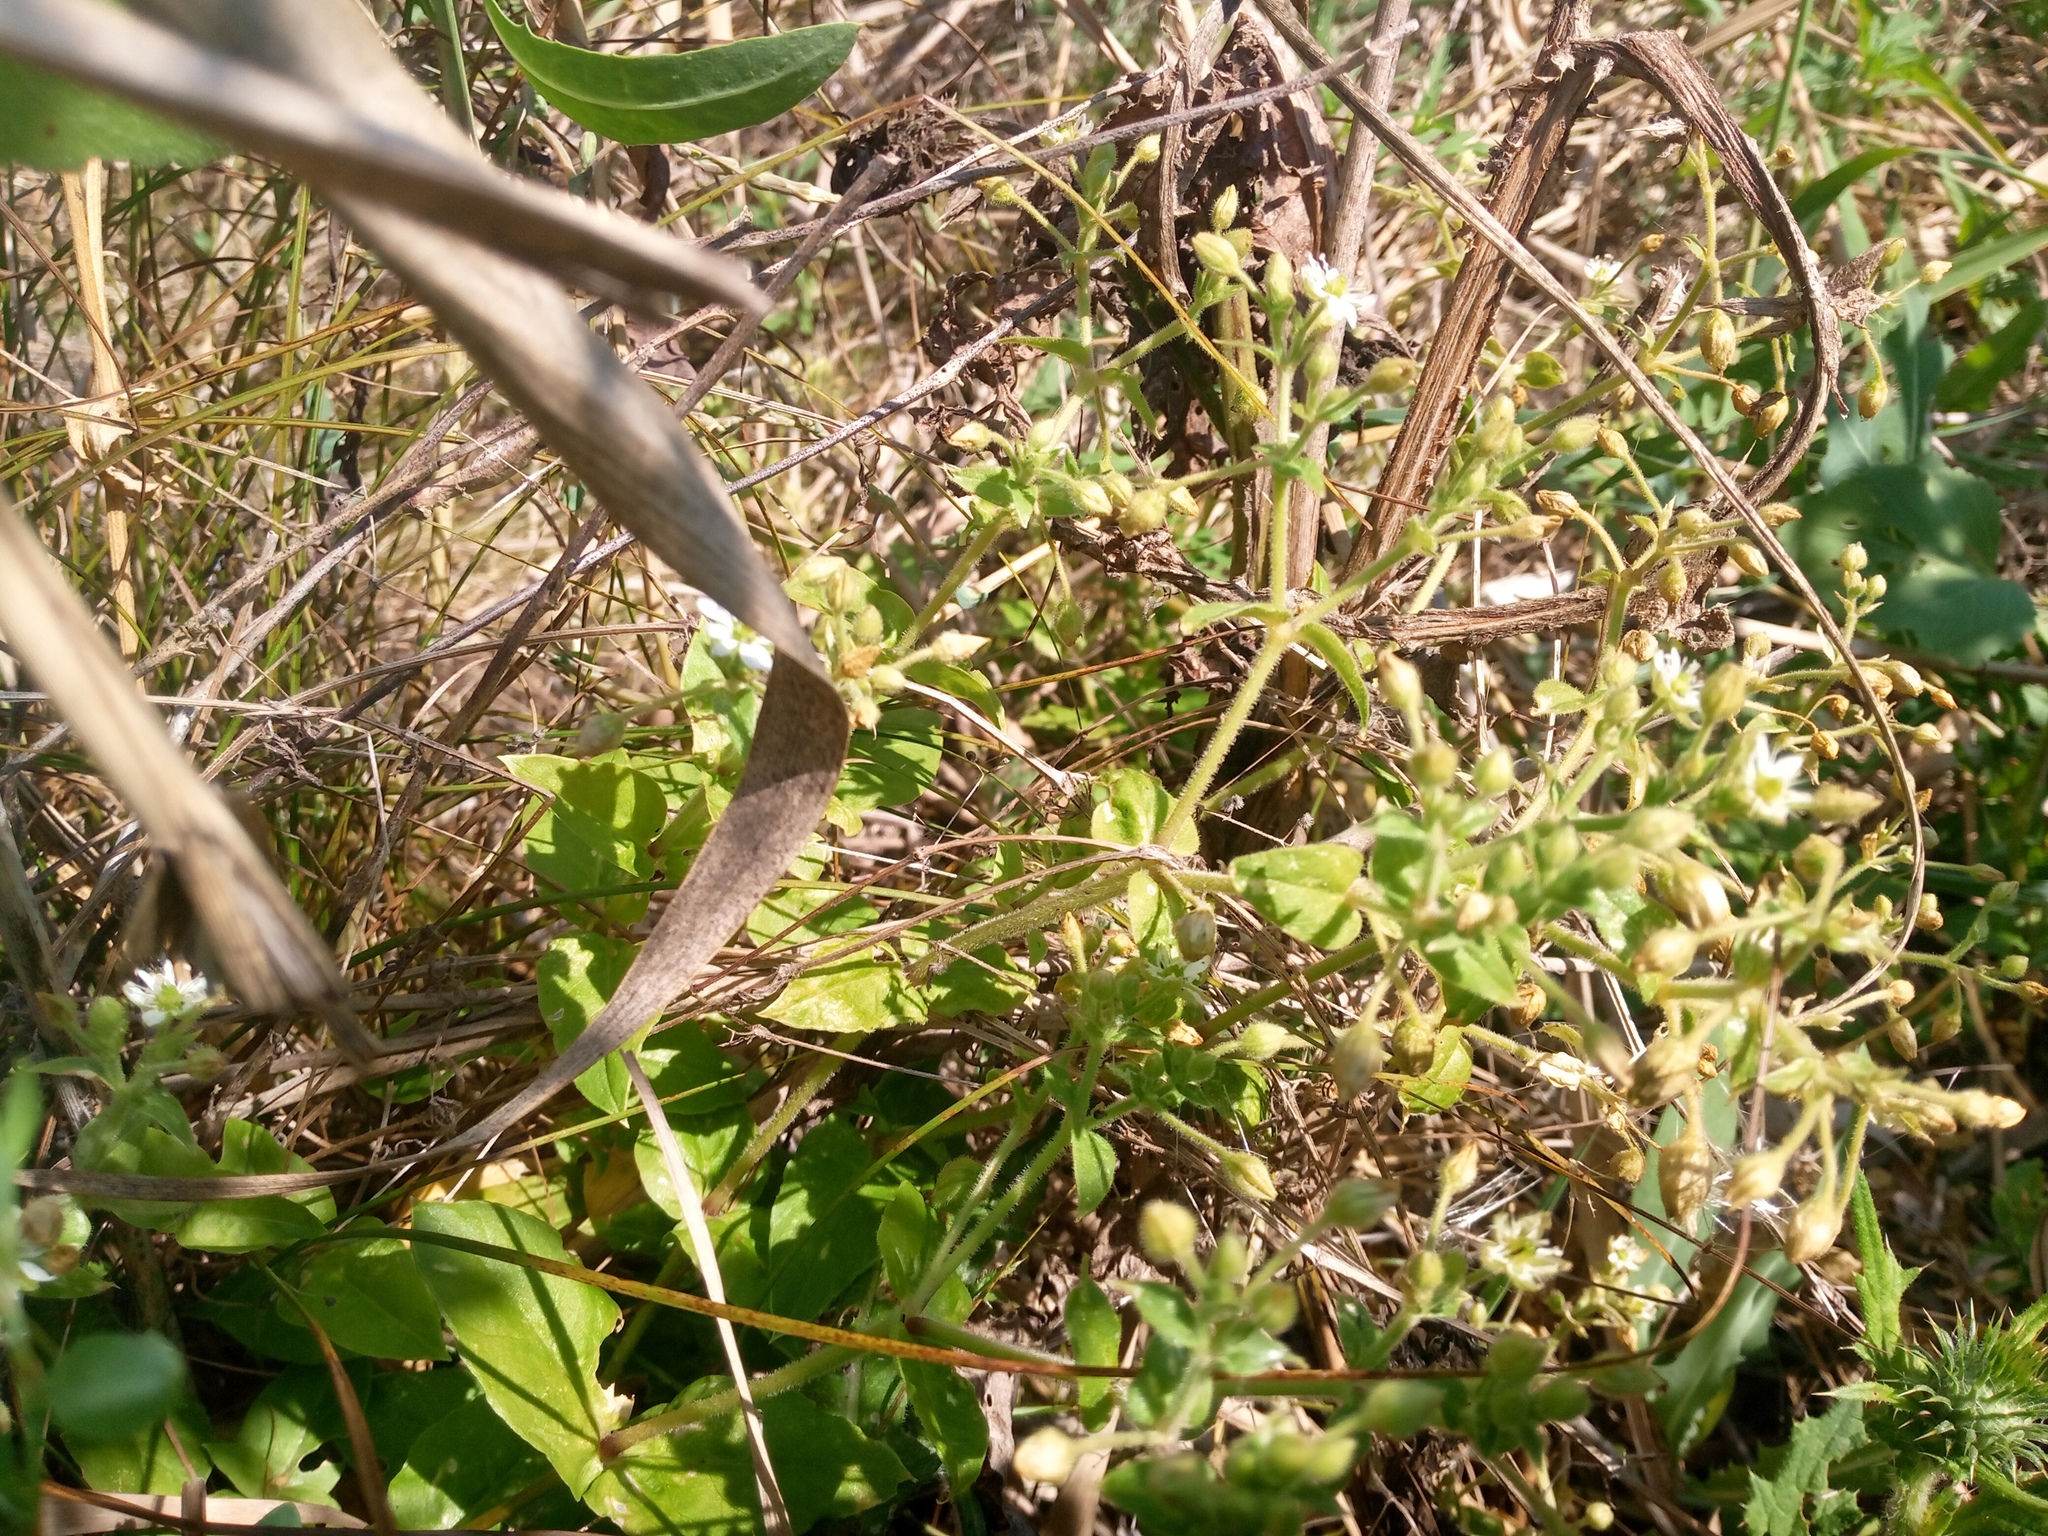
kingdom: Plantae
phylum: Tracheophyta
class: Magnoliopsida
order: Caryophyllales
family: Caryophyllaceae
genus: Stellaria
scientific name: Stellaria aquatica
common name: Water chickweed
